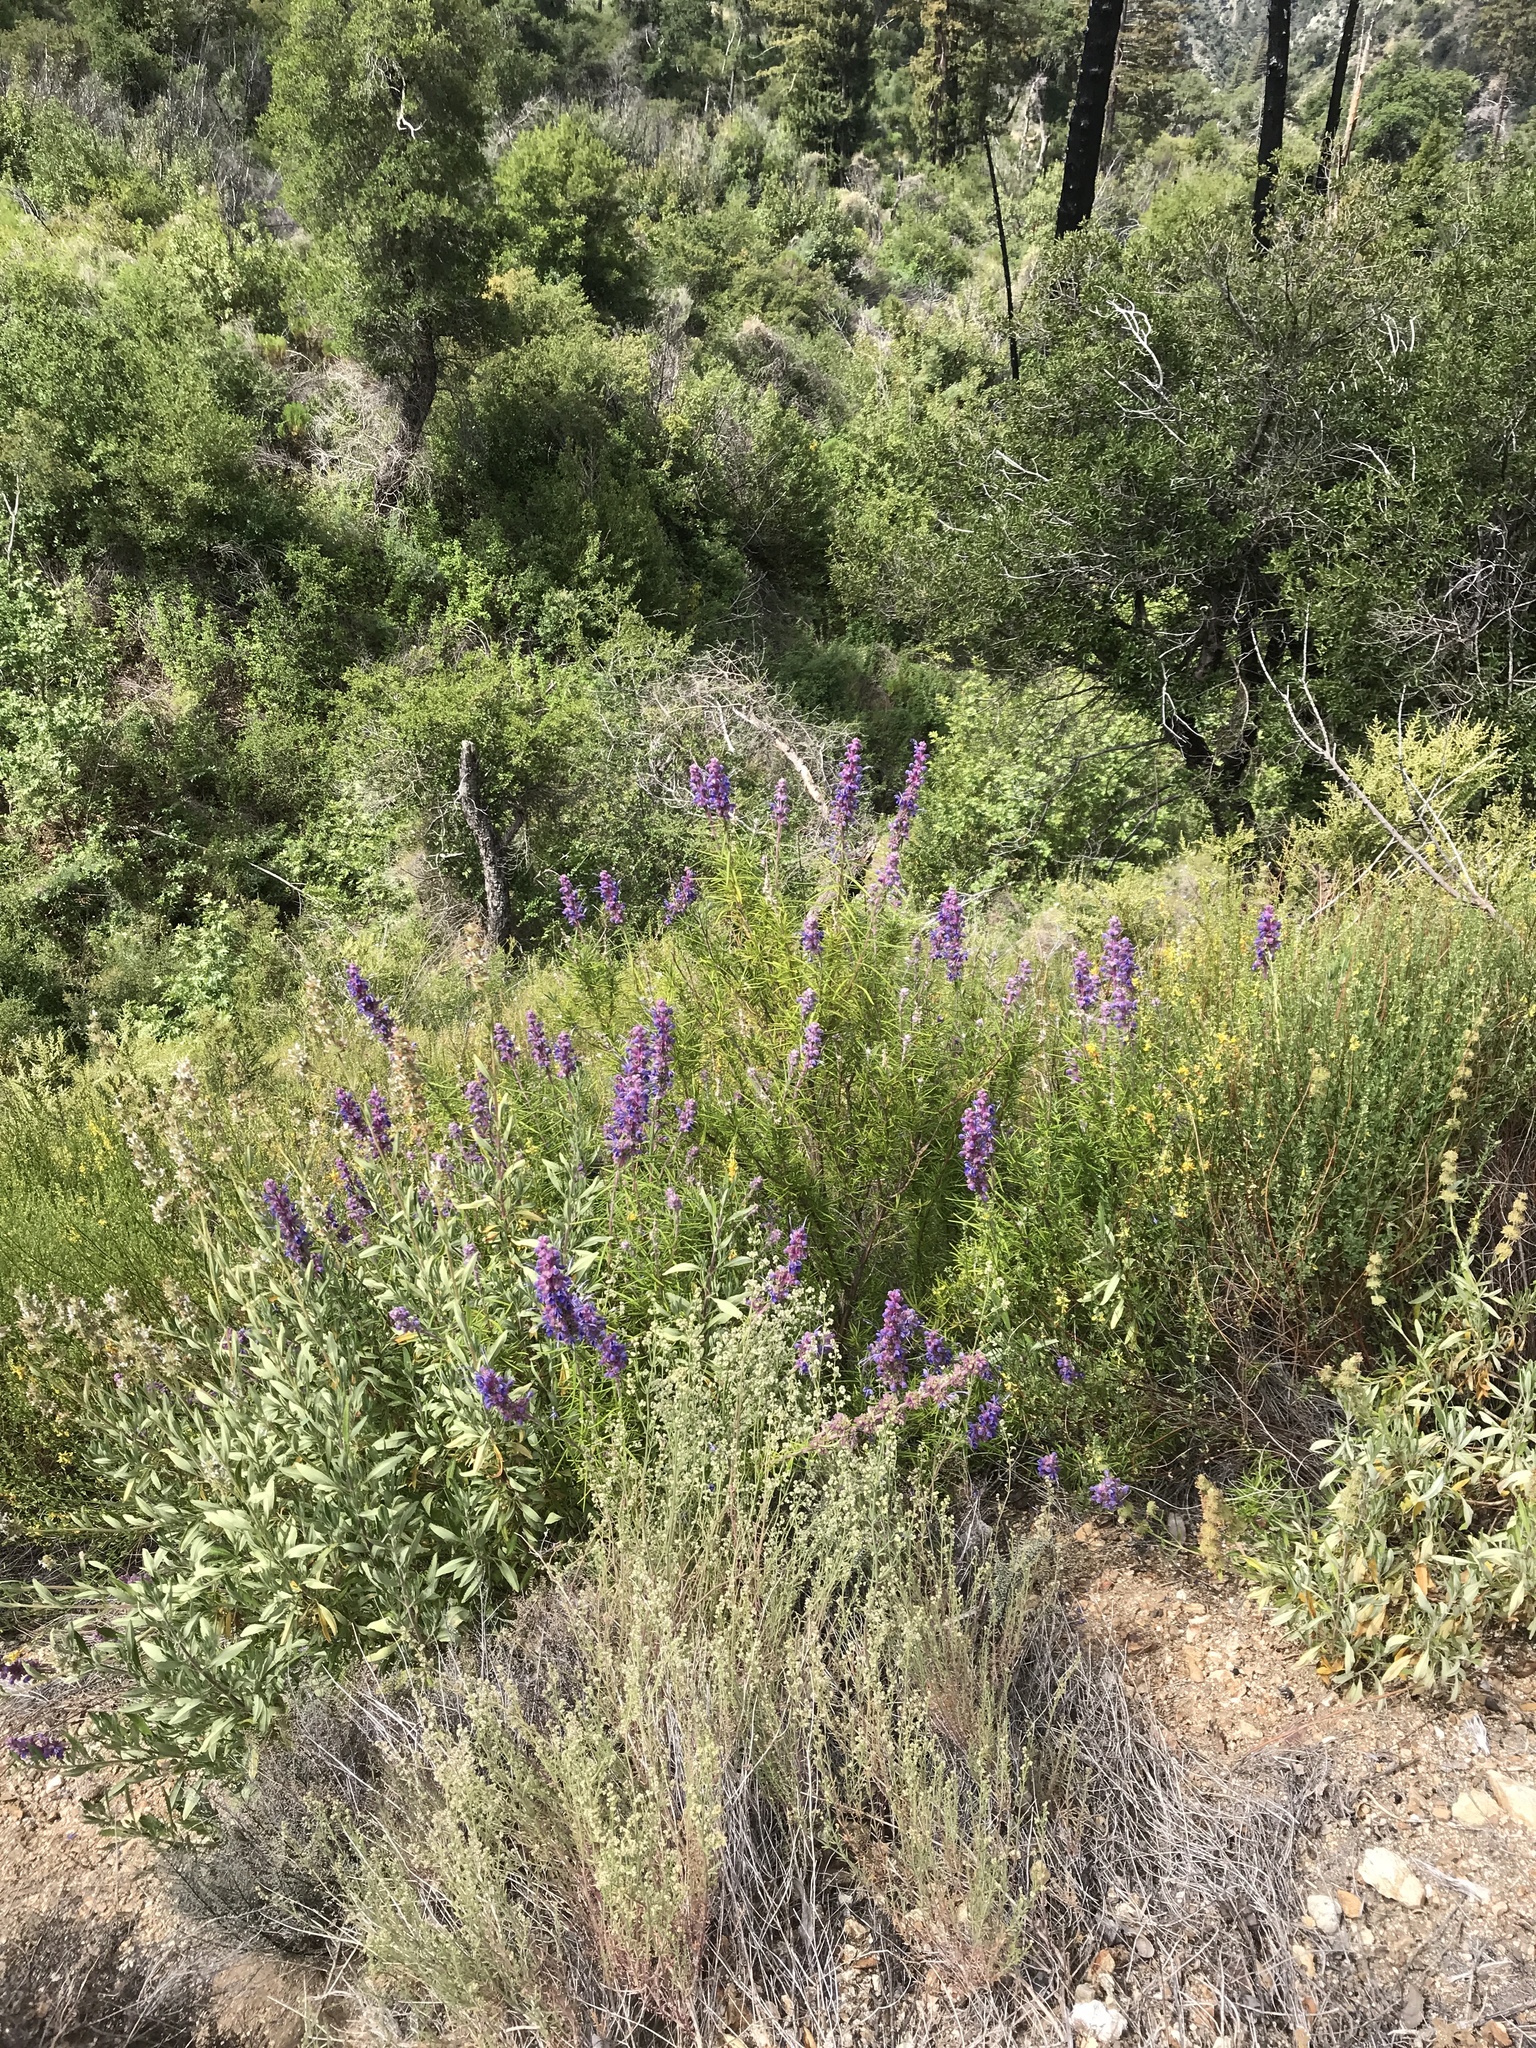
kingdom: Plantae
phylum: Tracheophyta
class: Magnoliopsida
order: Lamiales
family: Lamiaceae
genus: Trichostema
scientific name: Trichostema lanatum
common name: Woolly bluecurls
